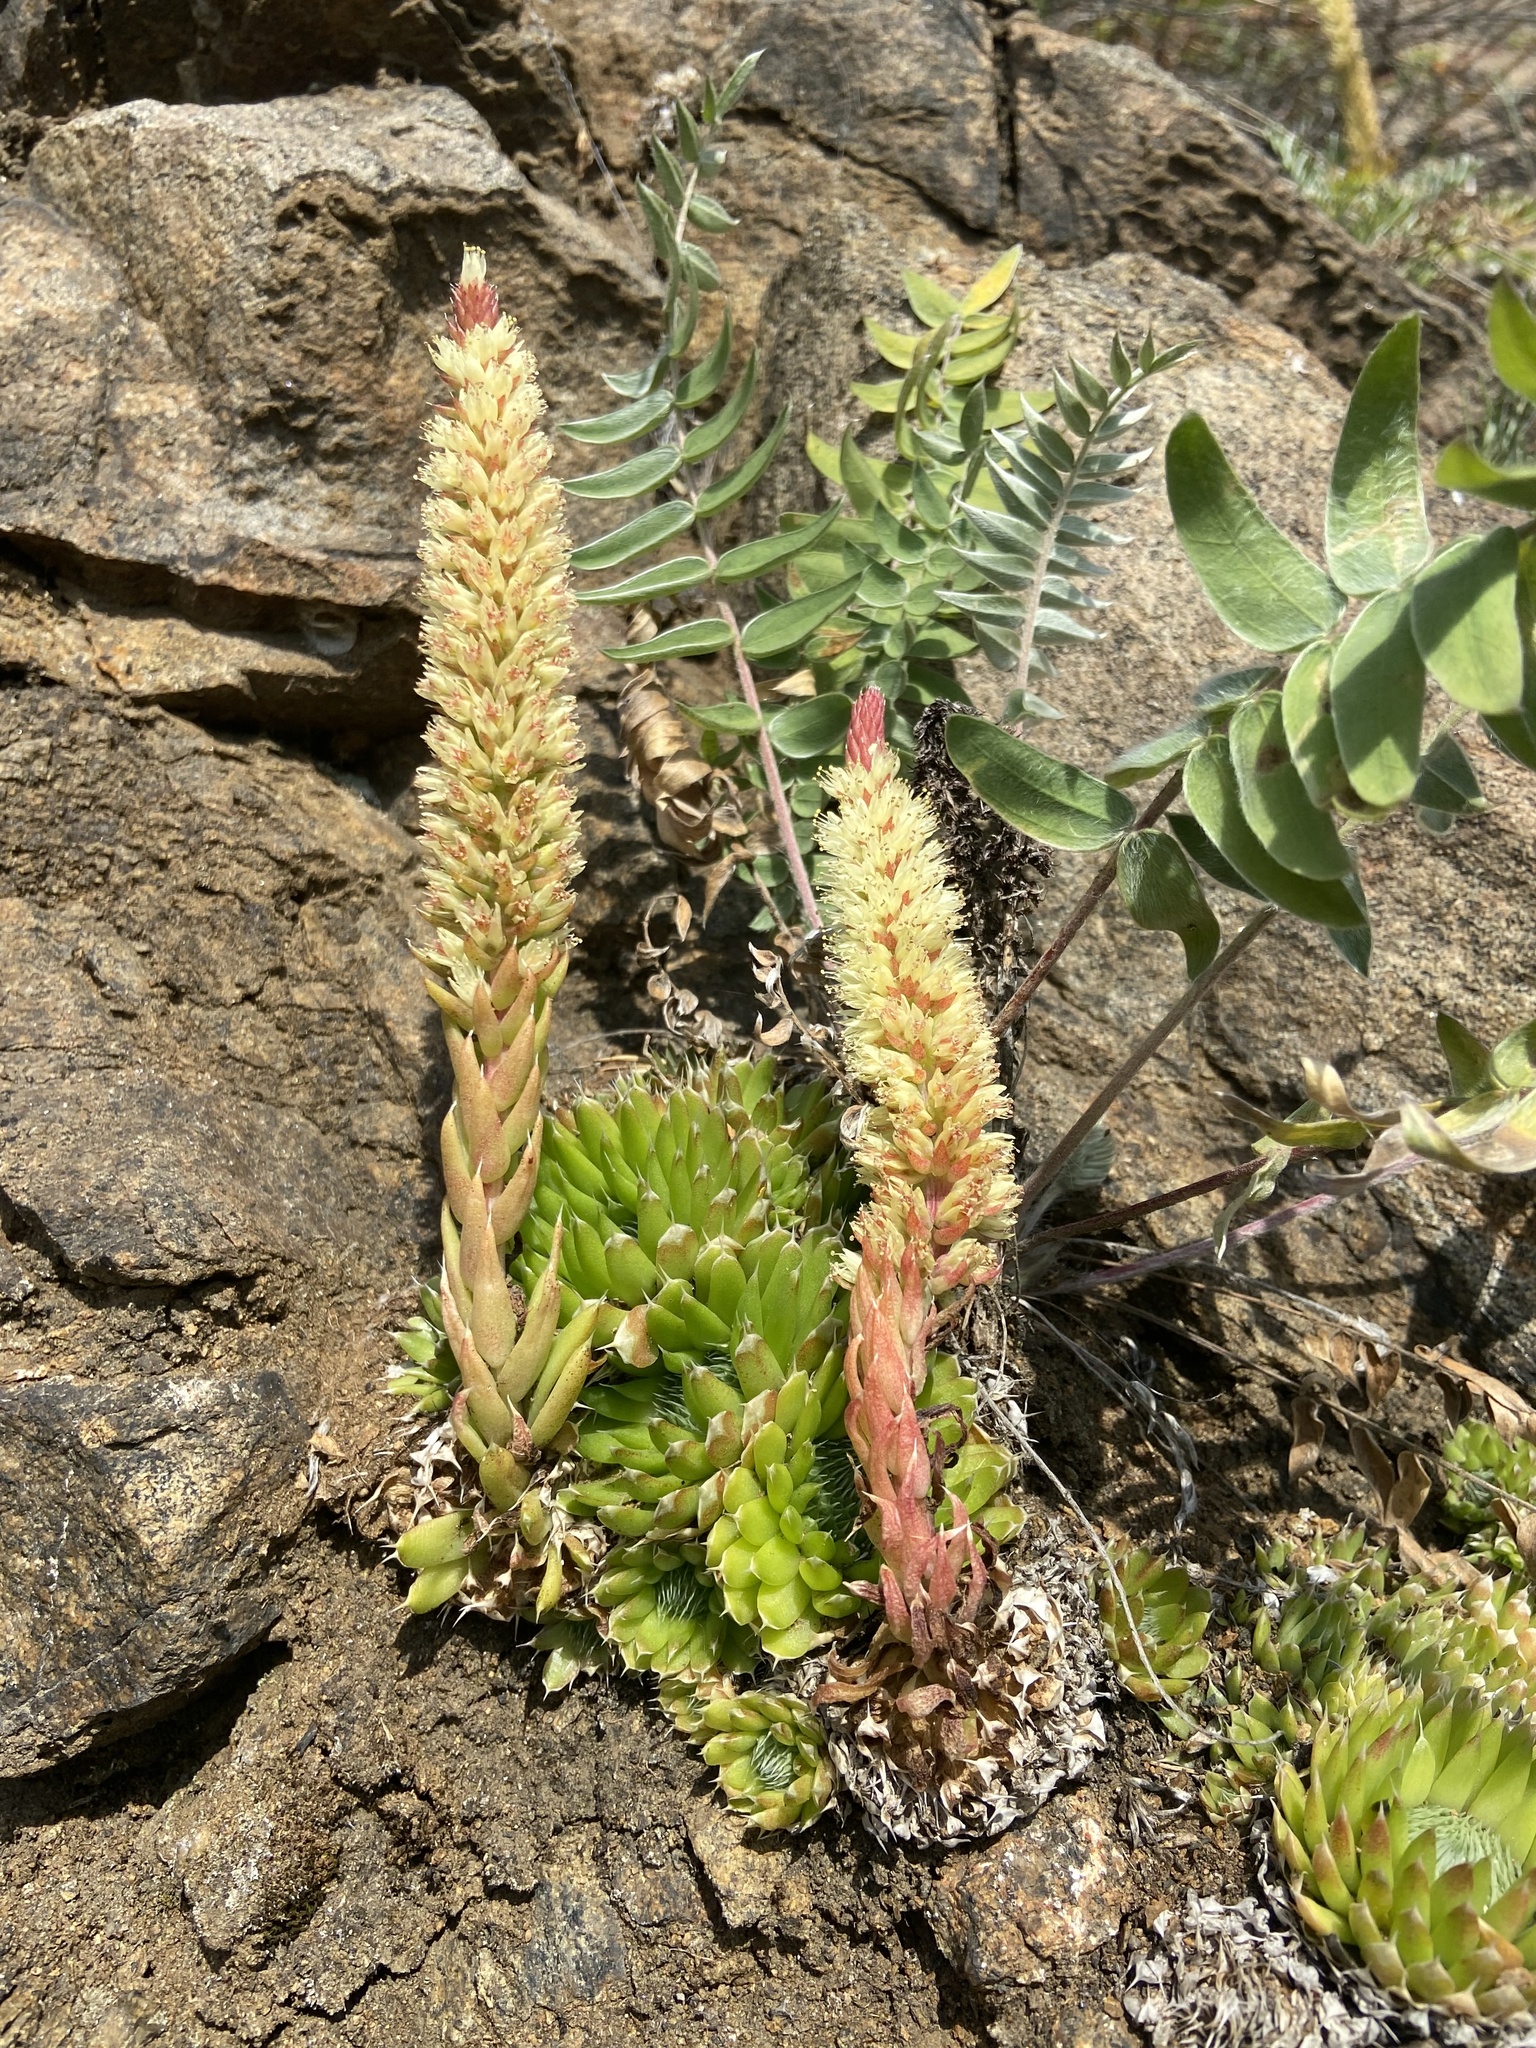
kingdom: Plantae
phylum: Tracheophyta
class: Magnoliopsida
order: Saxifragales
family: Crassulaceae
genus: Orostachys
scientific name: Orostachys spinosa
